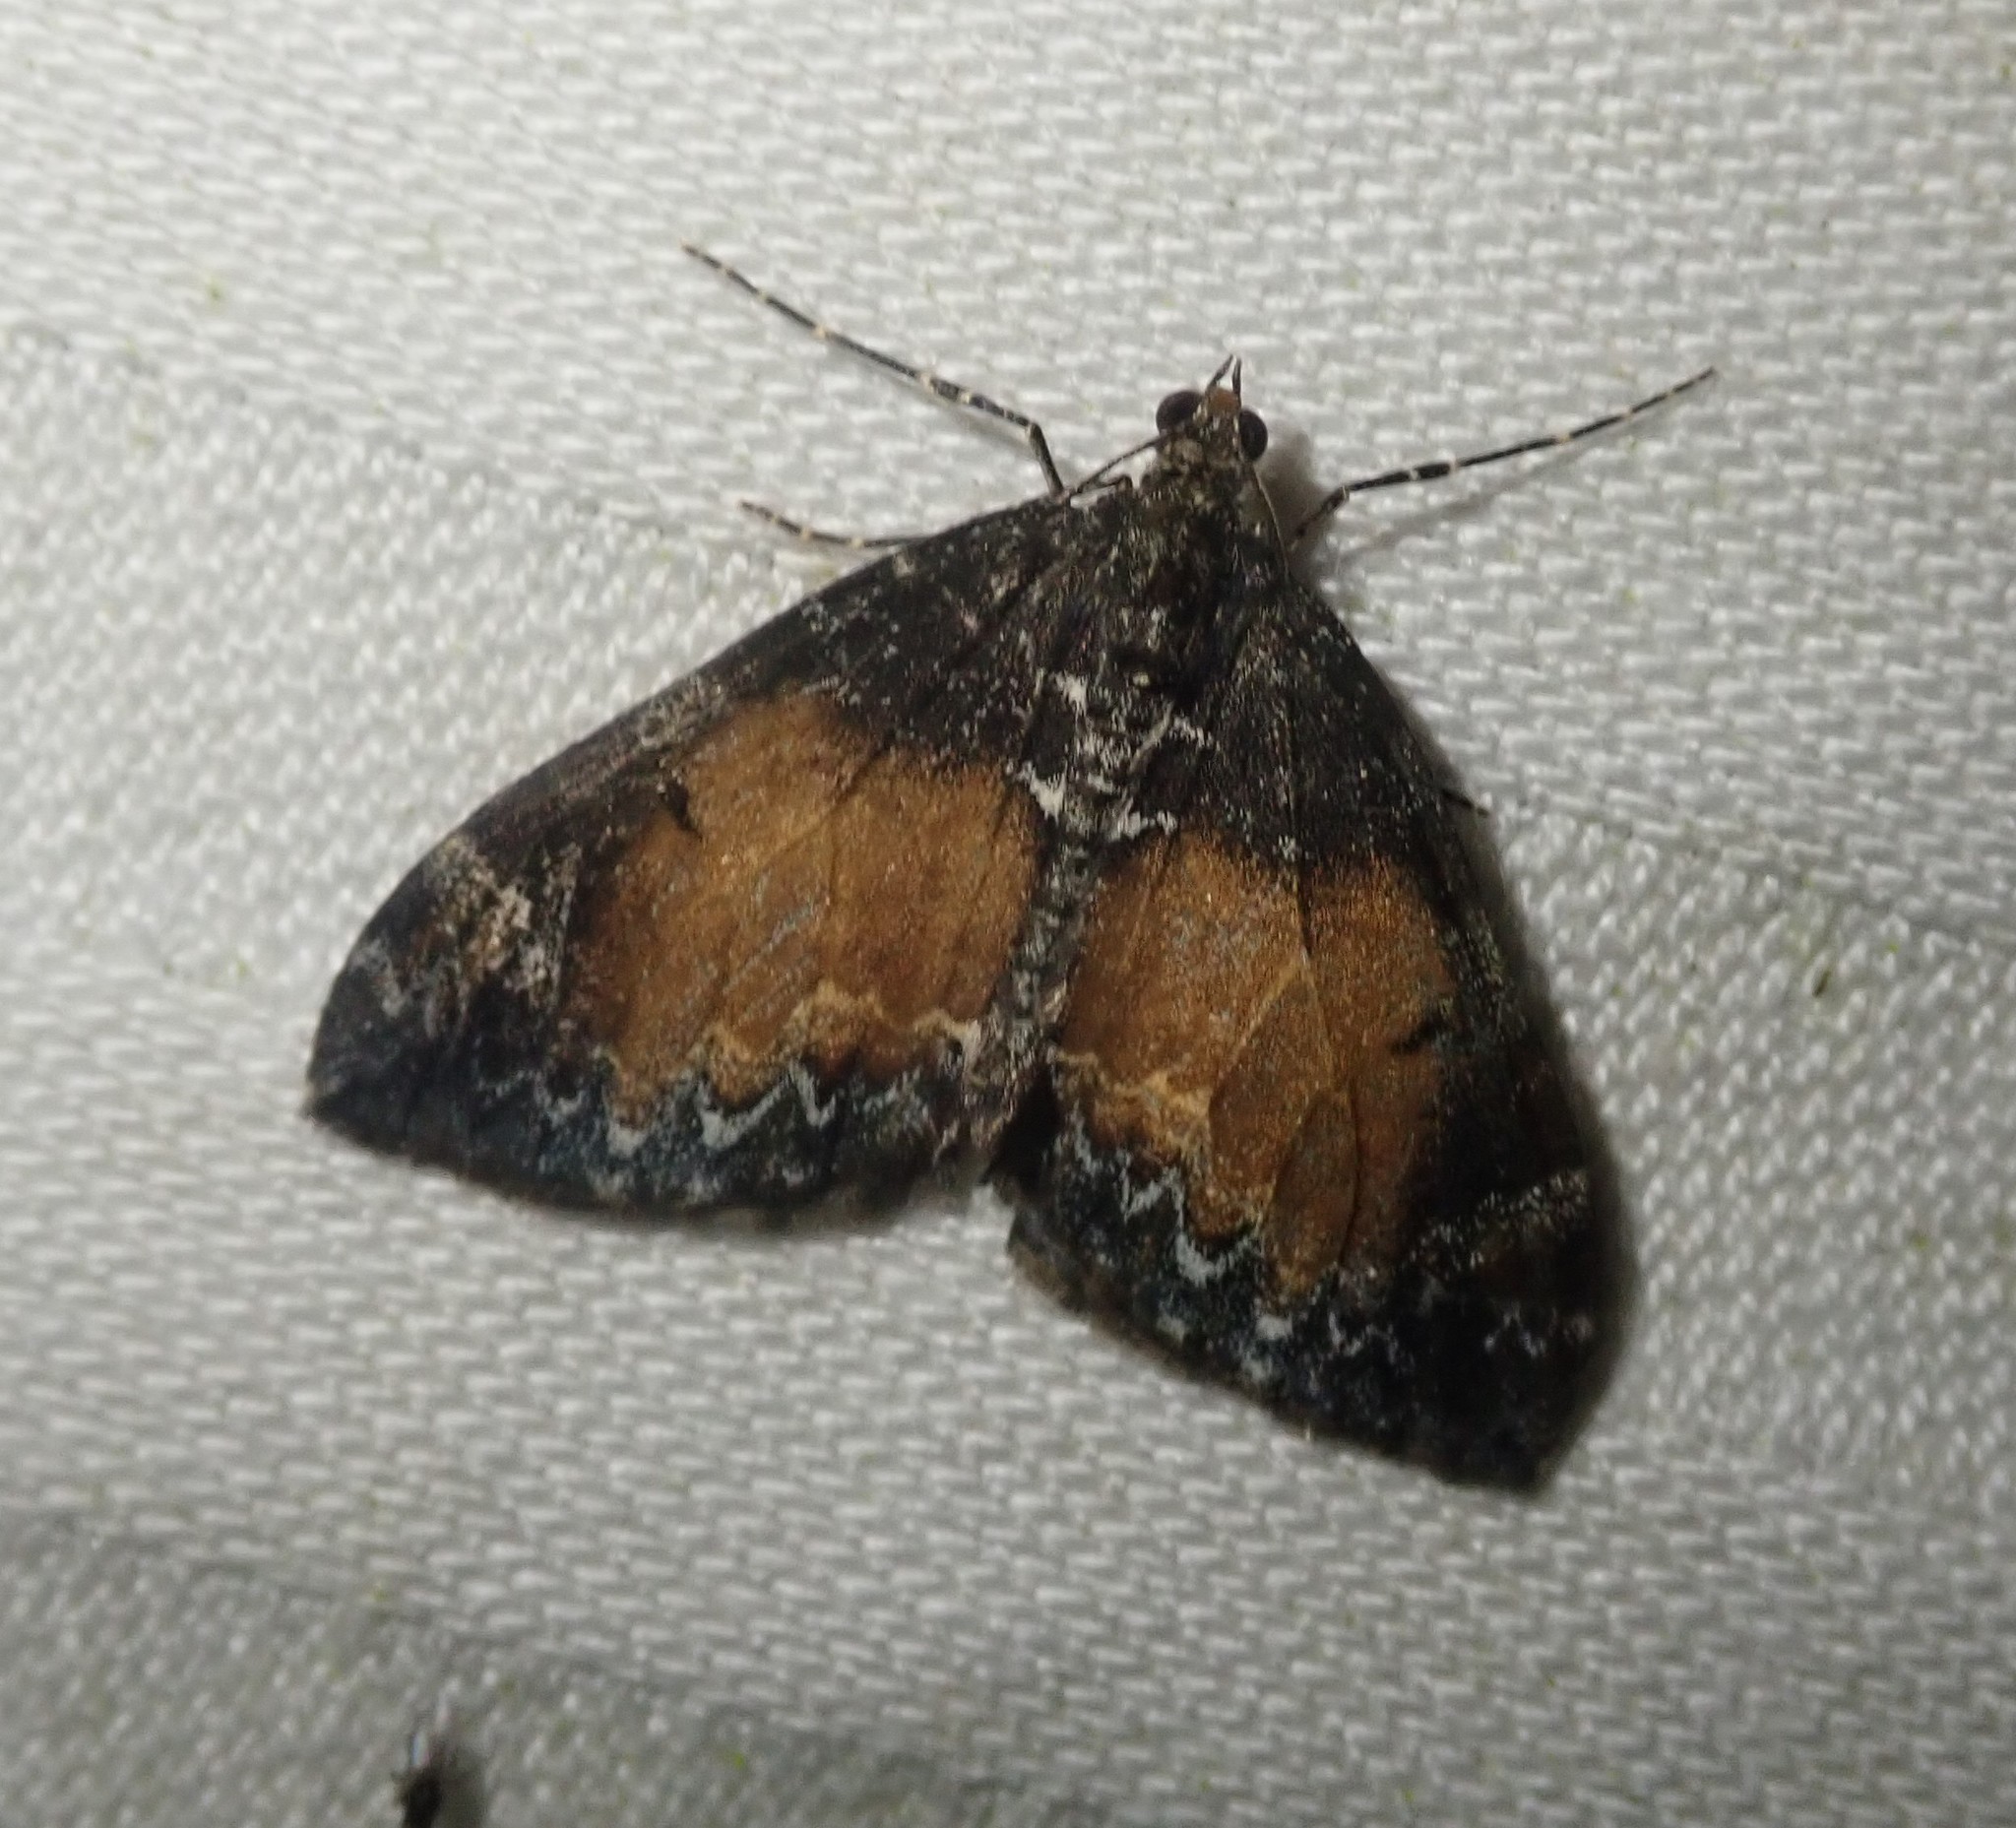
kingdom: Animalia
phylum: Arthropoda
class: Insecta
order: Lepidoptera
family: Geometridae
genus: Dysstroma
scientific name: Dysstroma truncata
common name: Common marbled carpet
